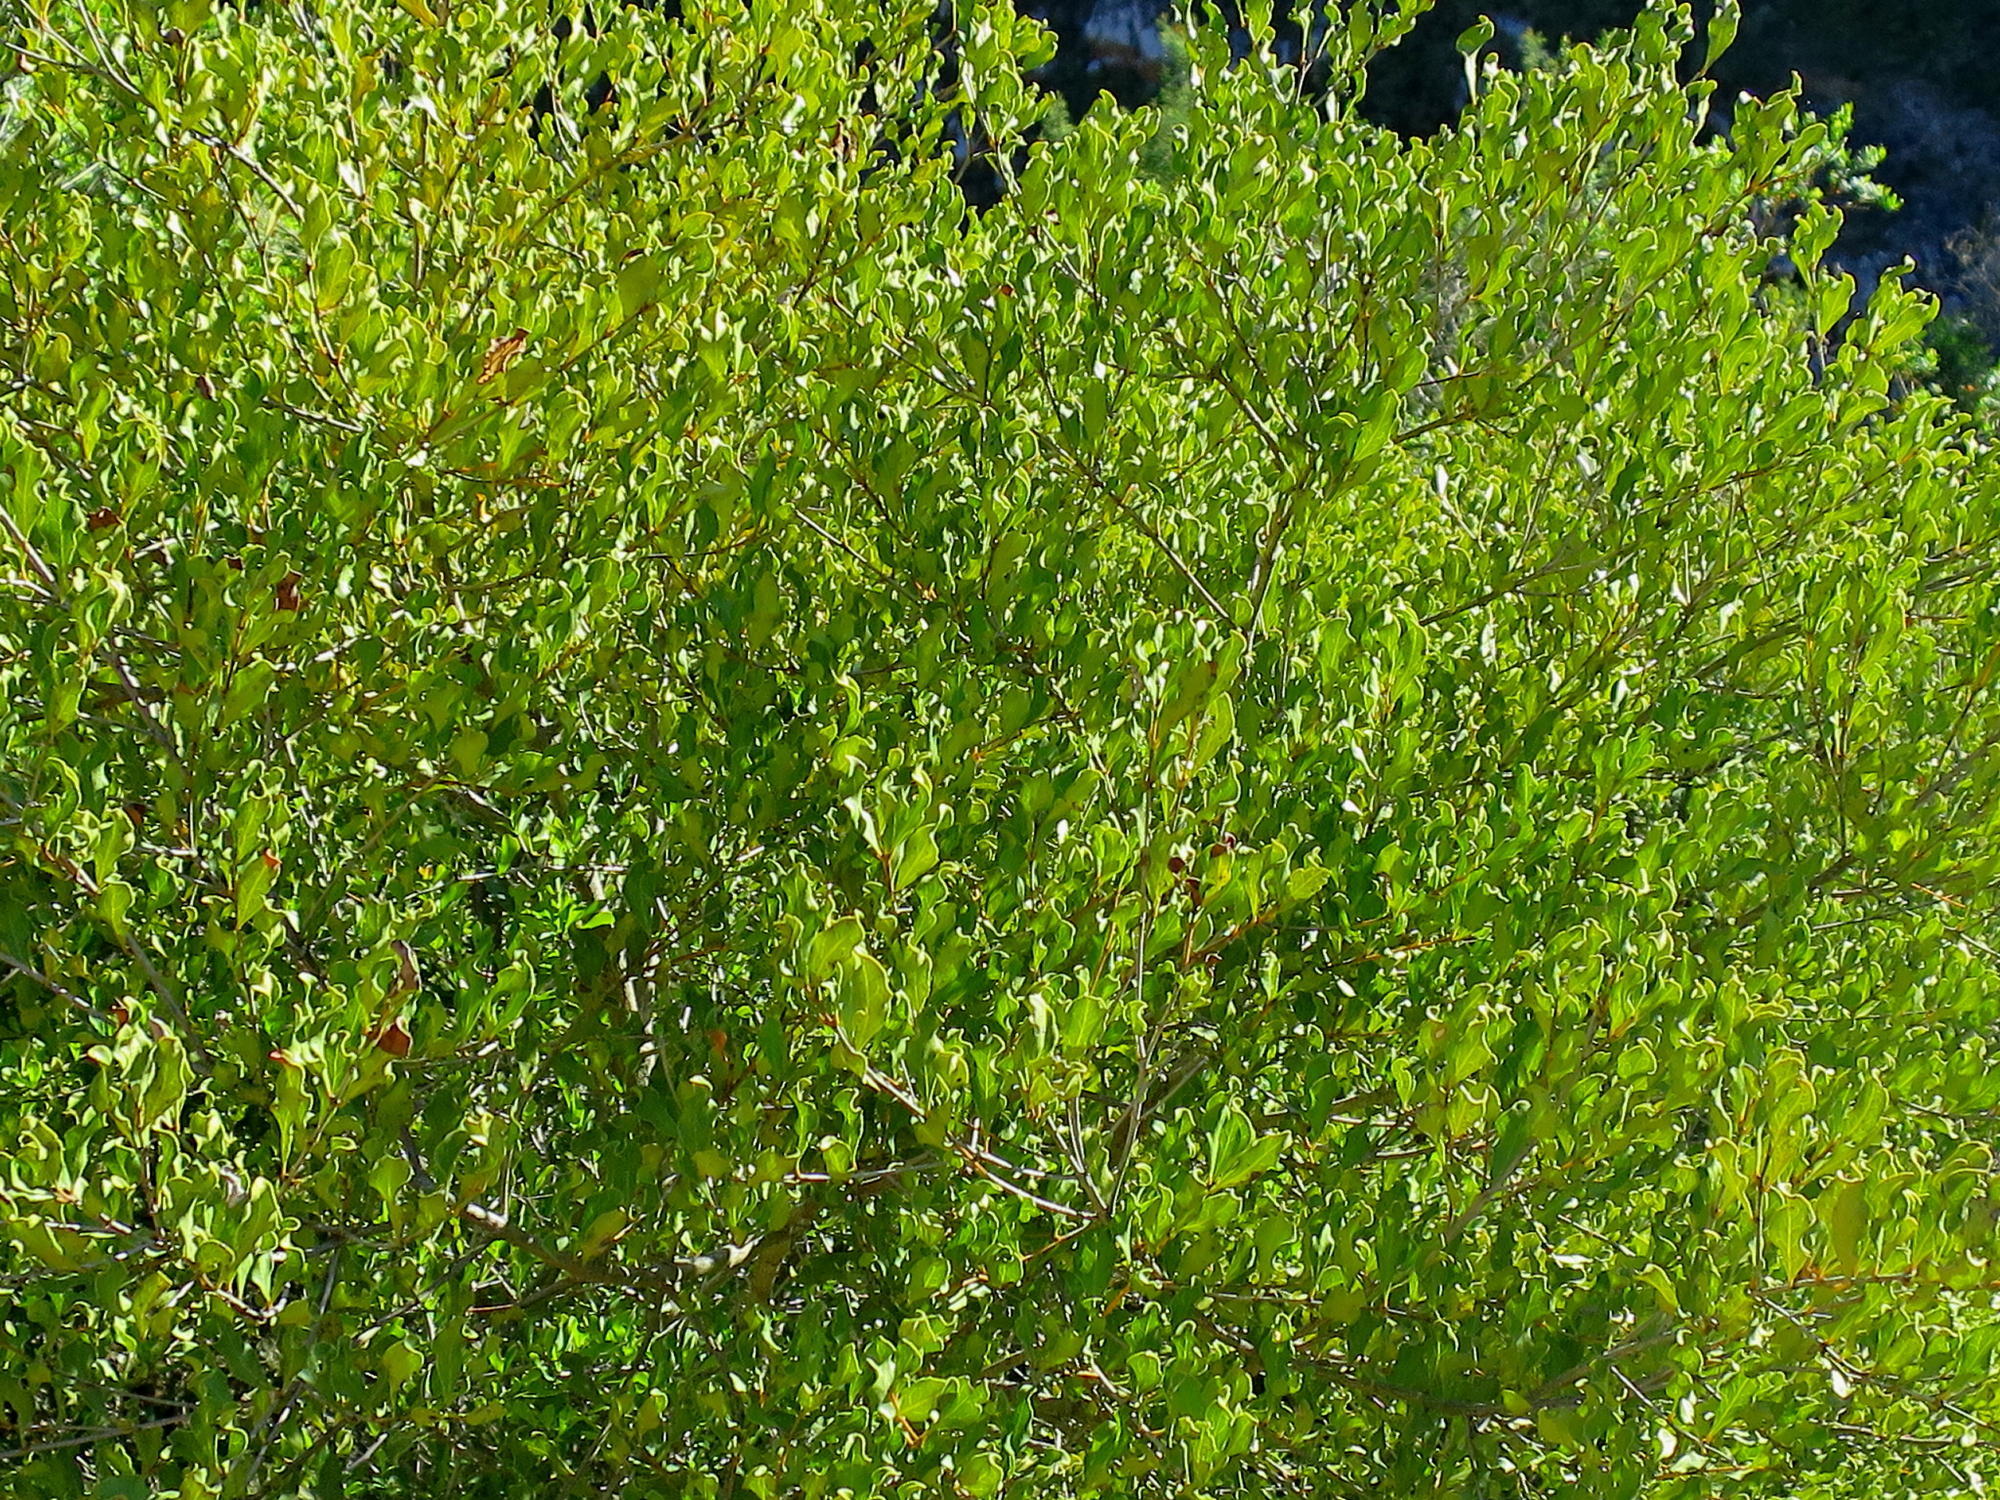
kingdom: Plantae
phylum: Tracheophyta
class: Magnoliopsida
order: Ericales
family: Ebenaceae
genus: Euclea
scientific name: Euclea undulata
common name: Small-leaved guarri
